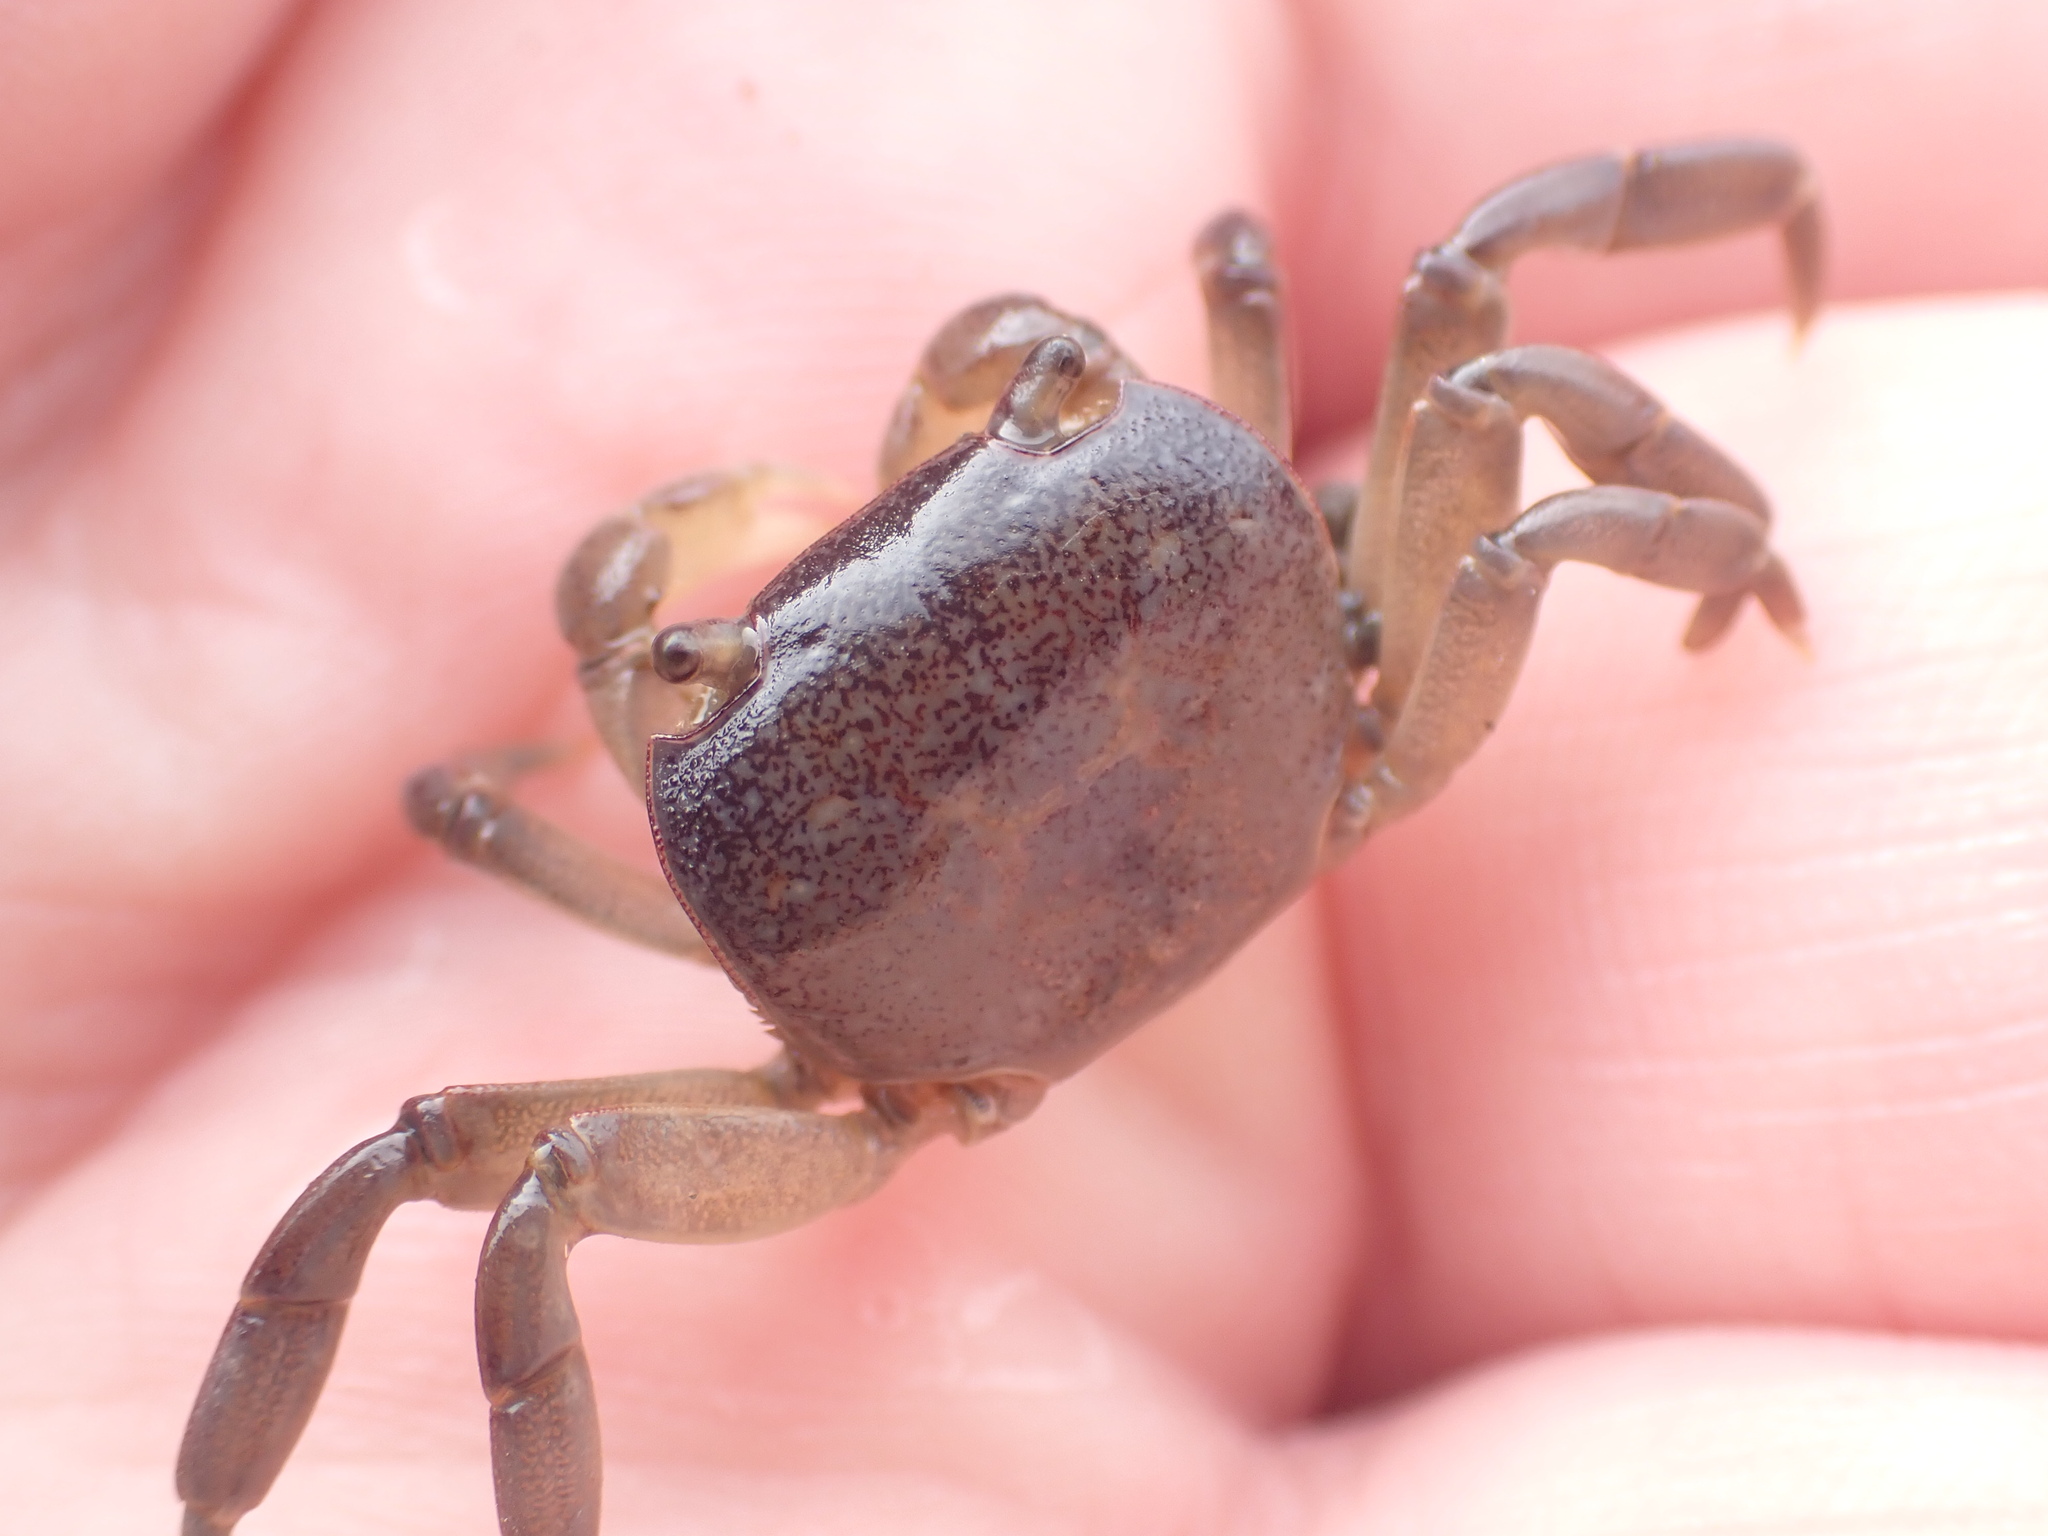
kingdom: Animalia
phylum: Arthropoda
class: Malacostraca
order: Decapoda
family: Varunidae
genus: Cyclograpsus
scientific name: Cyclograpsus lavauxi
